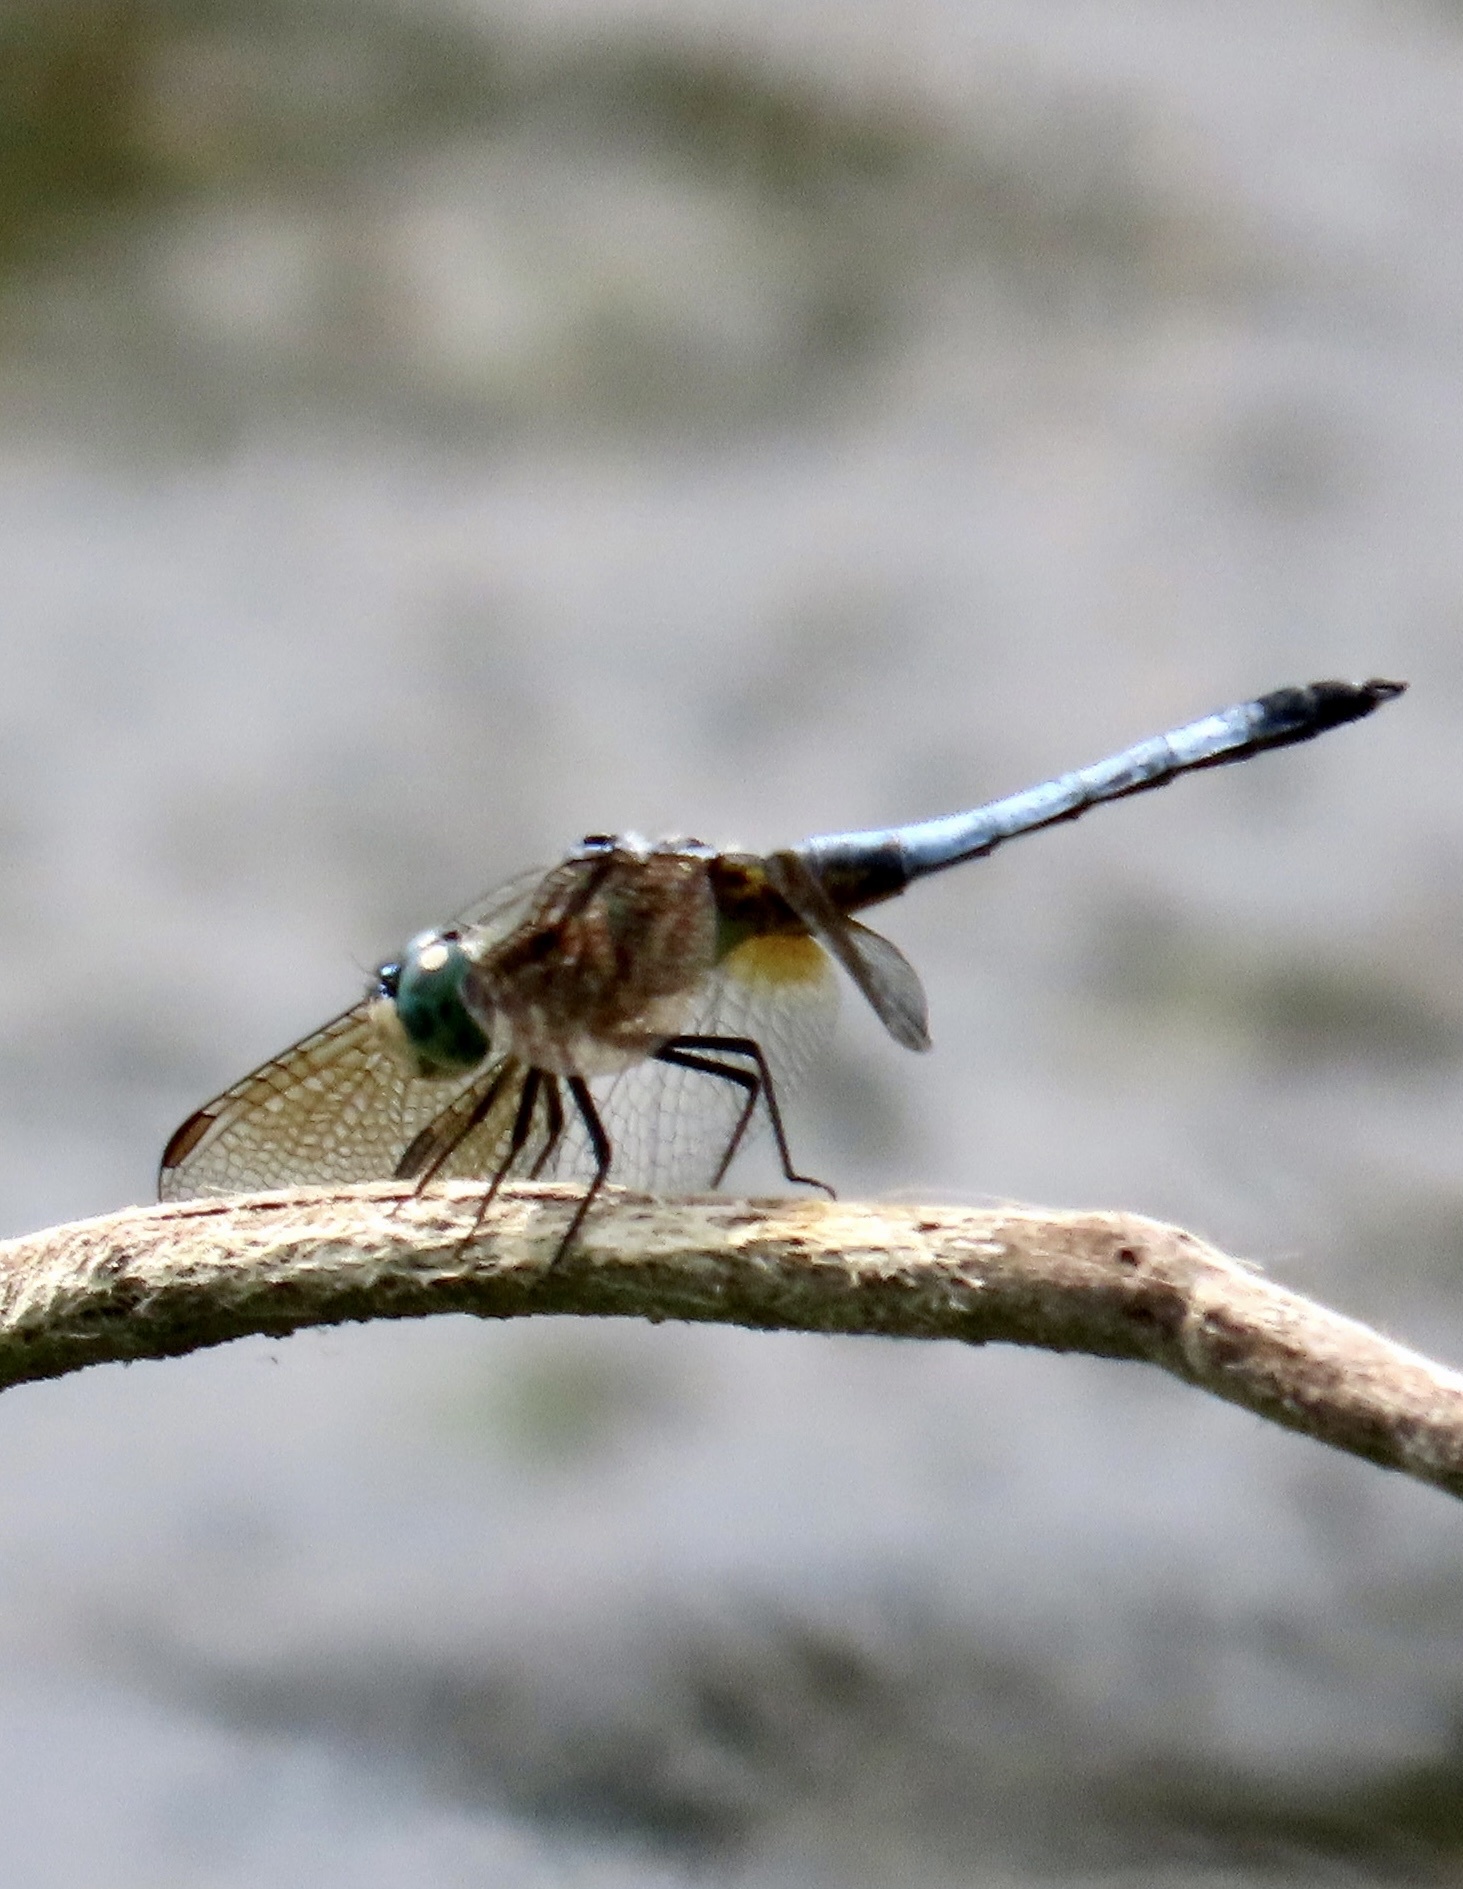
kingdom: Animalia
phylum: Arthropoda
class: Insecta
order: Odonata
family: Libellulidae
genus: Pachydiplax
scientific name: Pachydiplax longipennis
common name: Blue dasher
